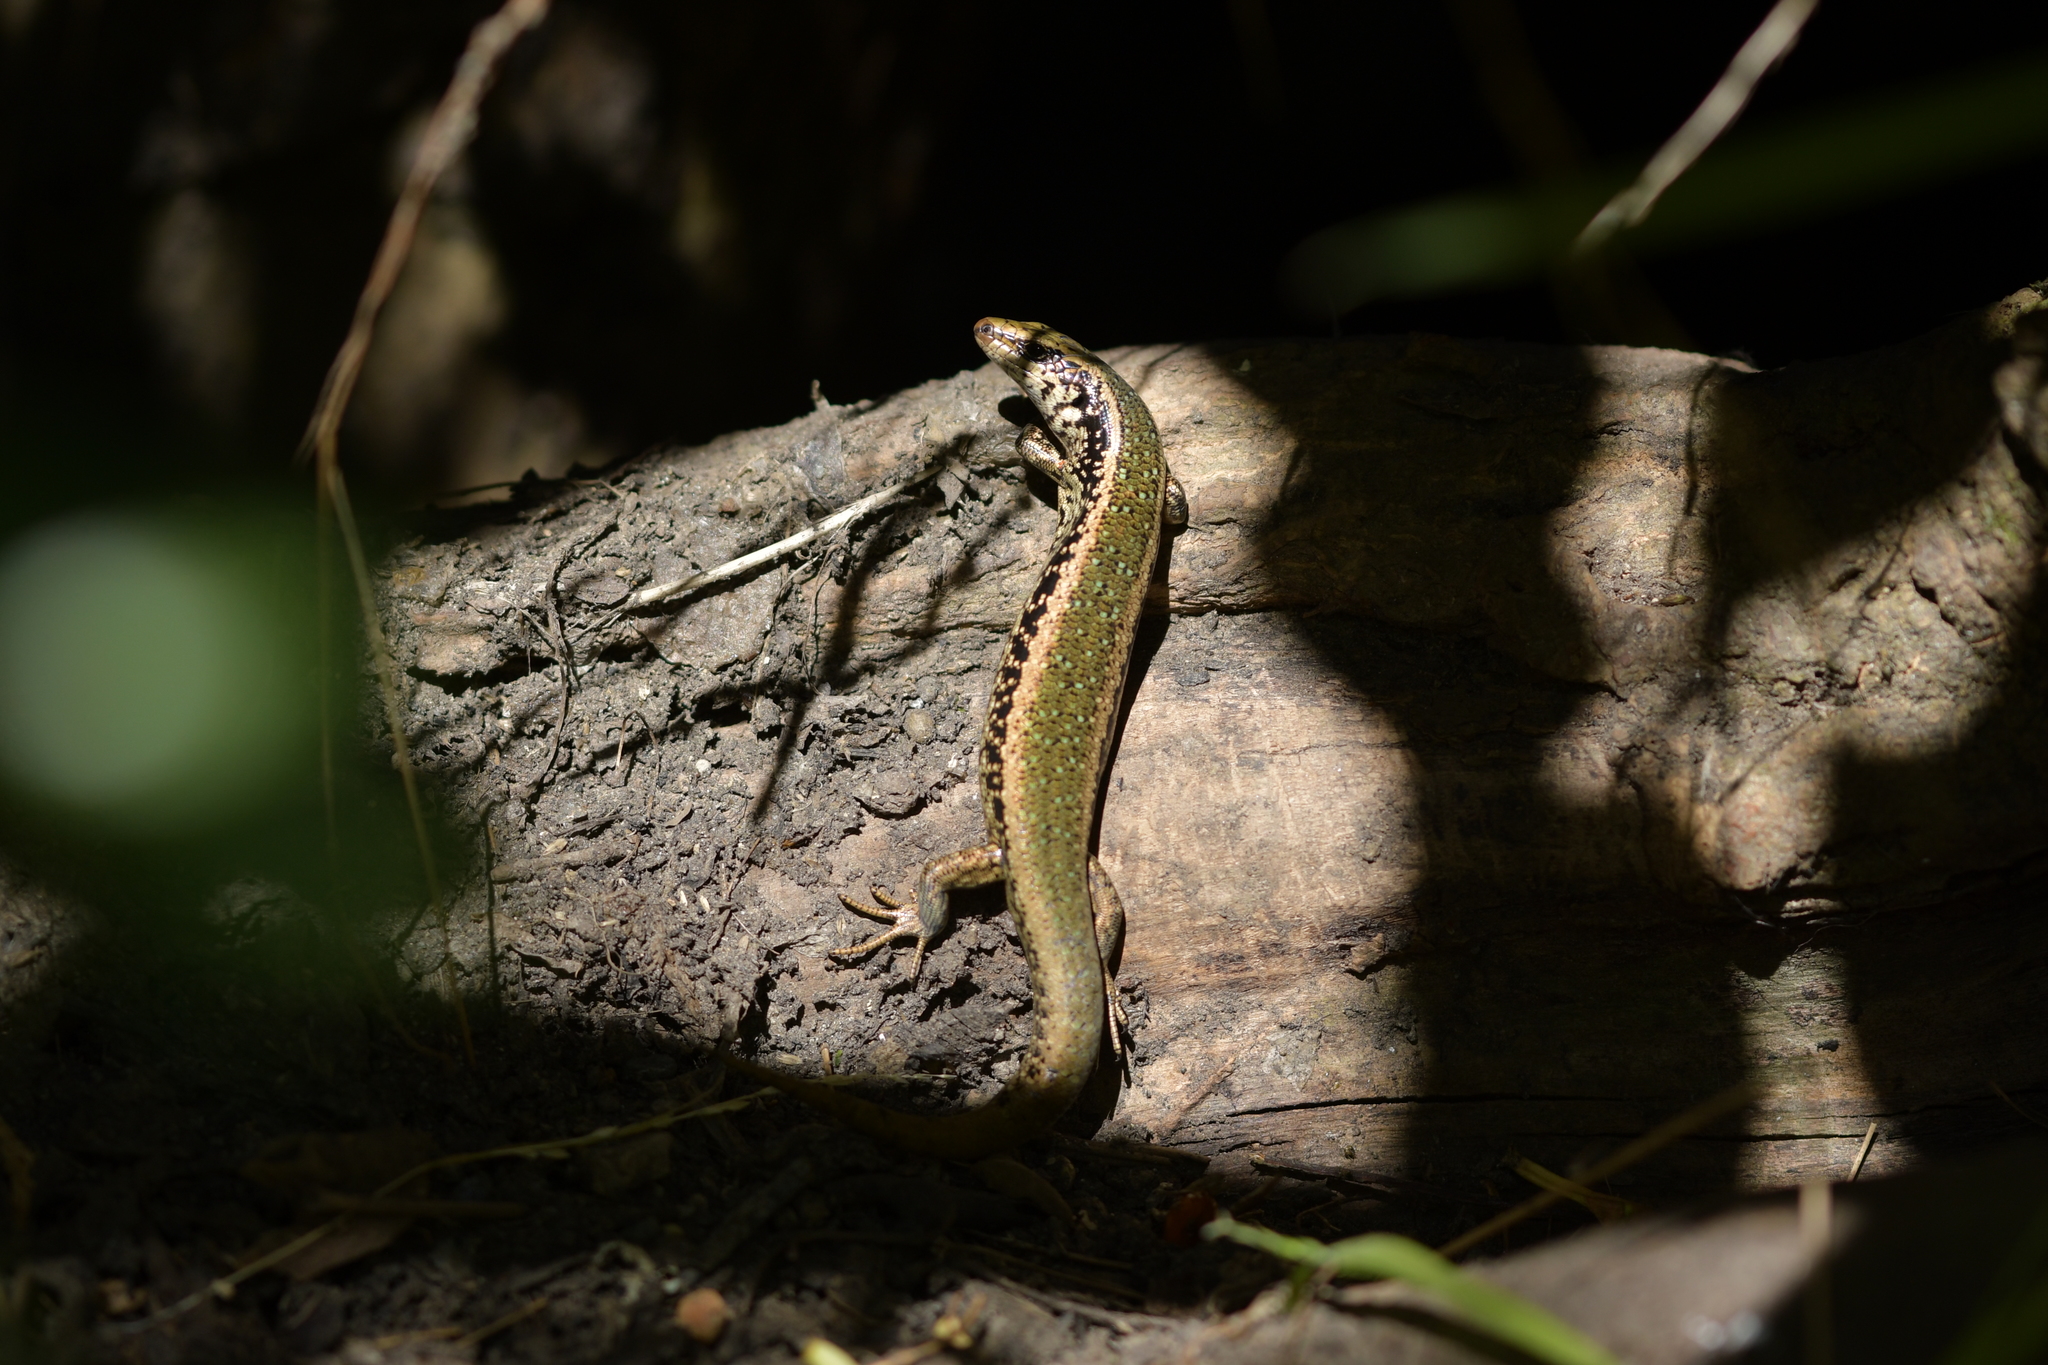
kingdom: Animalia
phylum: Chordata
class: Squamata
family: Scincidae
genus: Oligosoma
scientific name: Oligosoma kokowai
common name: Northern spotted skink
